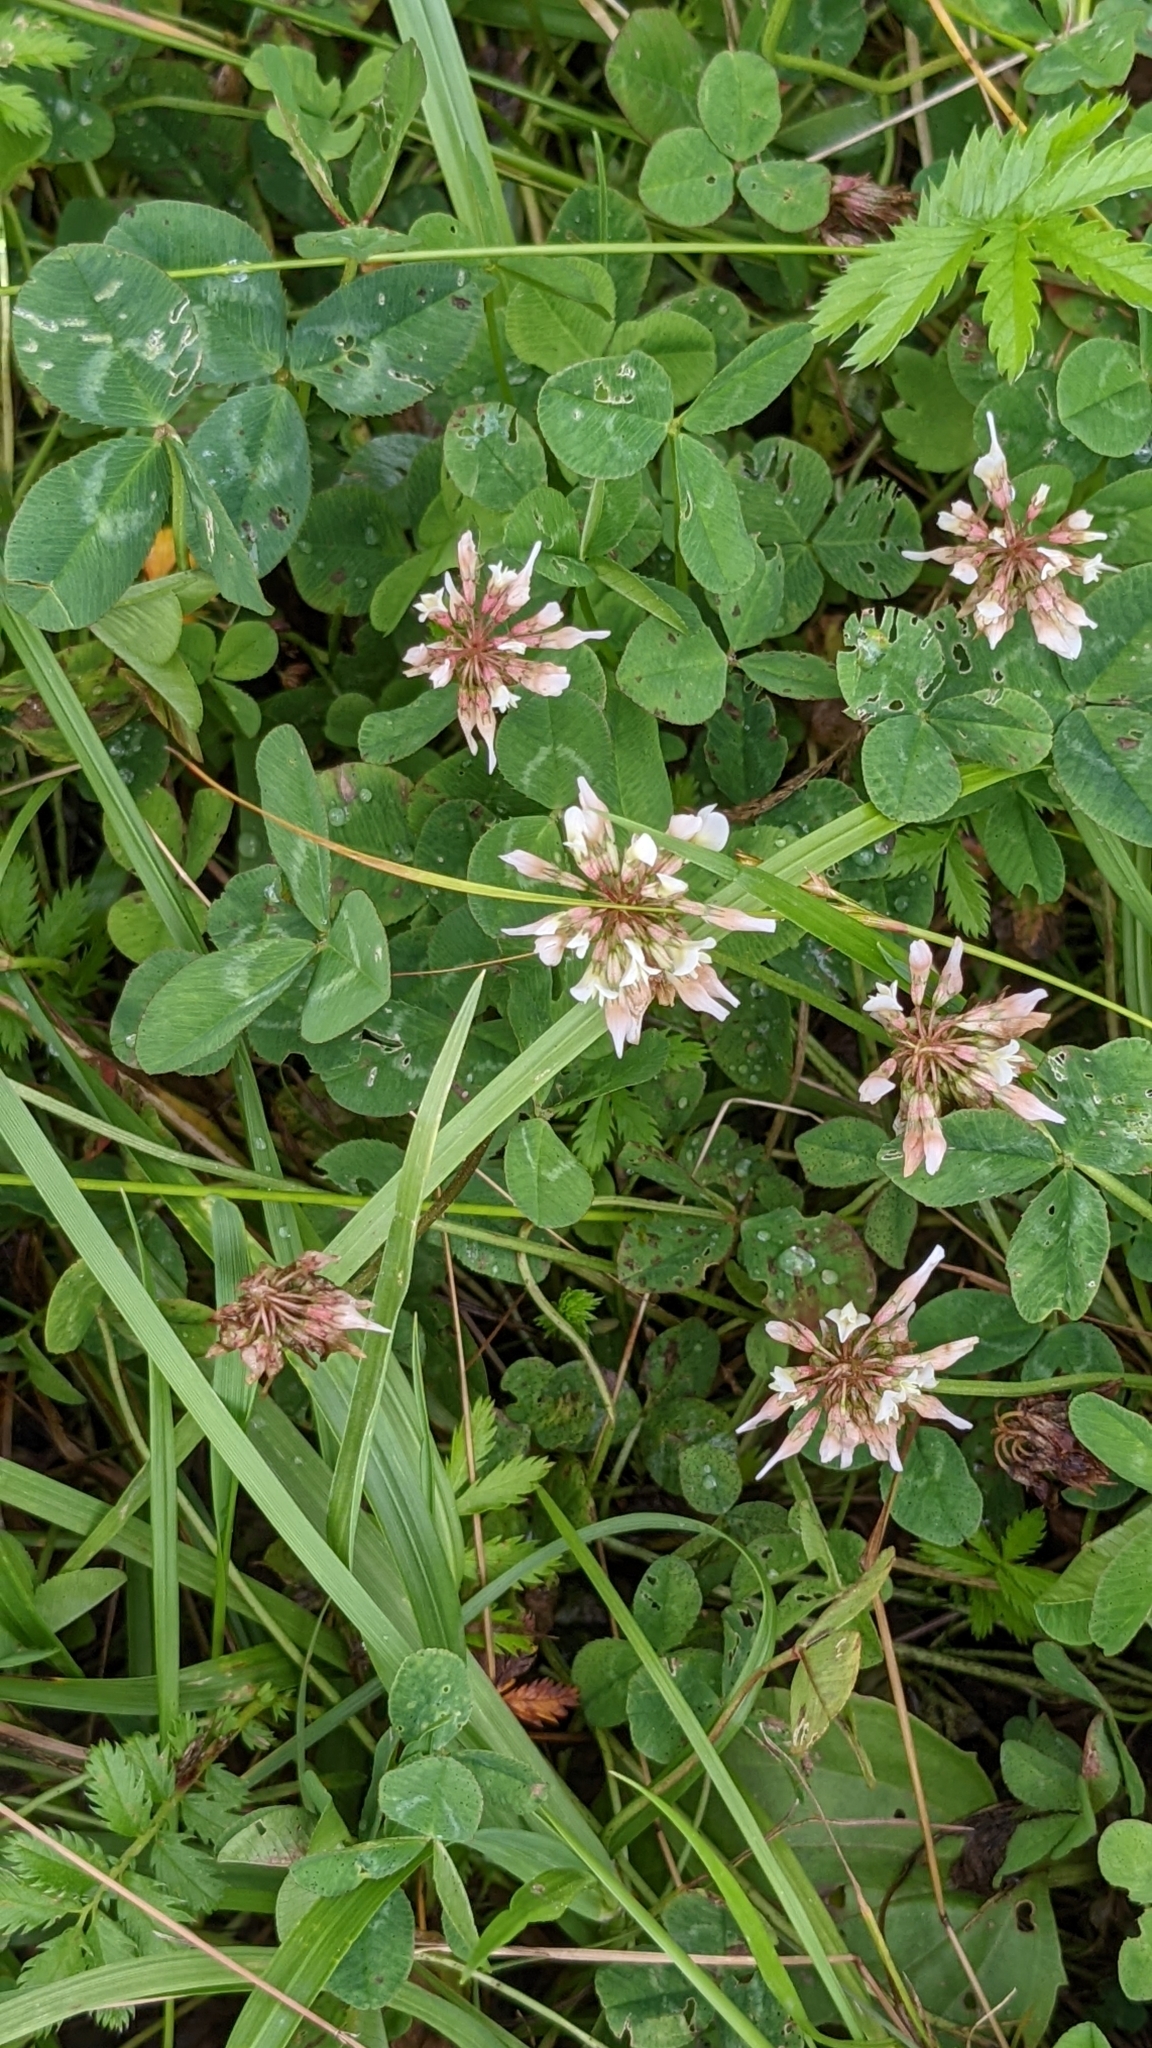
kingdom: Plantae
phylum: Tracheophyta
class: Magnoliopsida
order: Fabales
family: Fabaceae
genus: Trifolium
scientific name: Trifolium repens
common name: White clover
